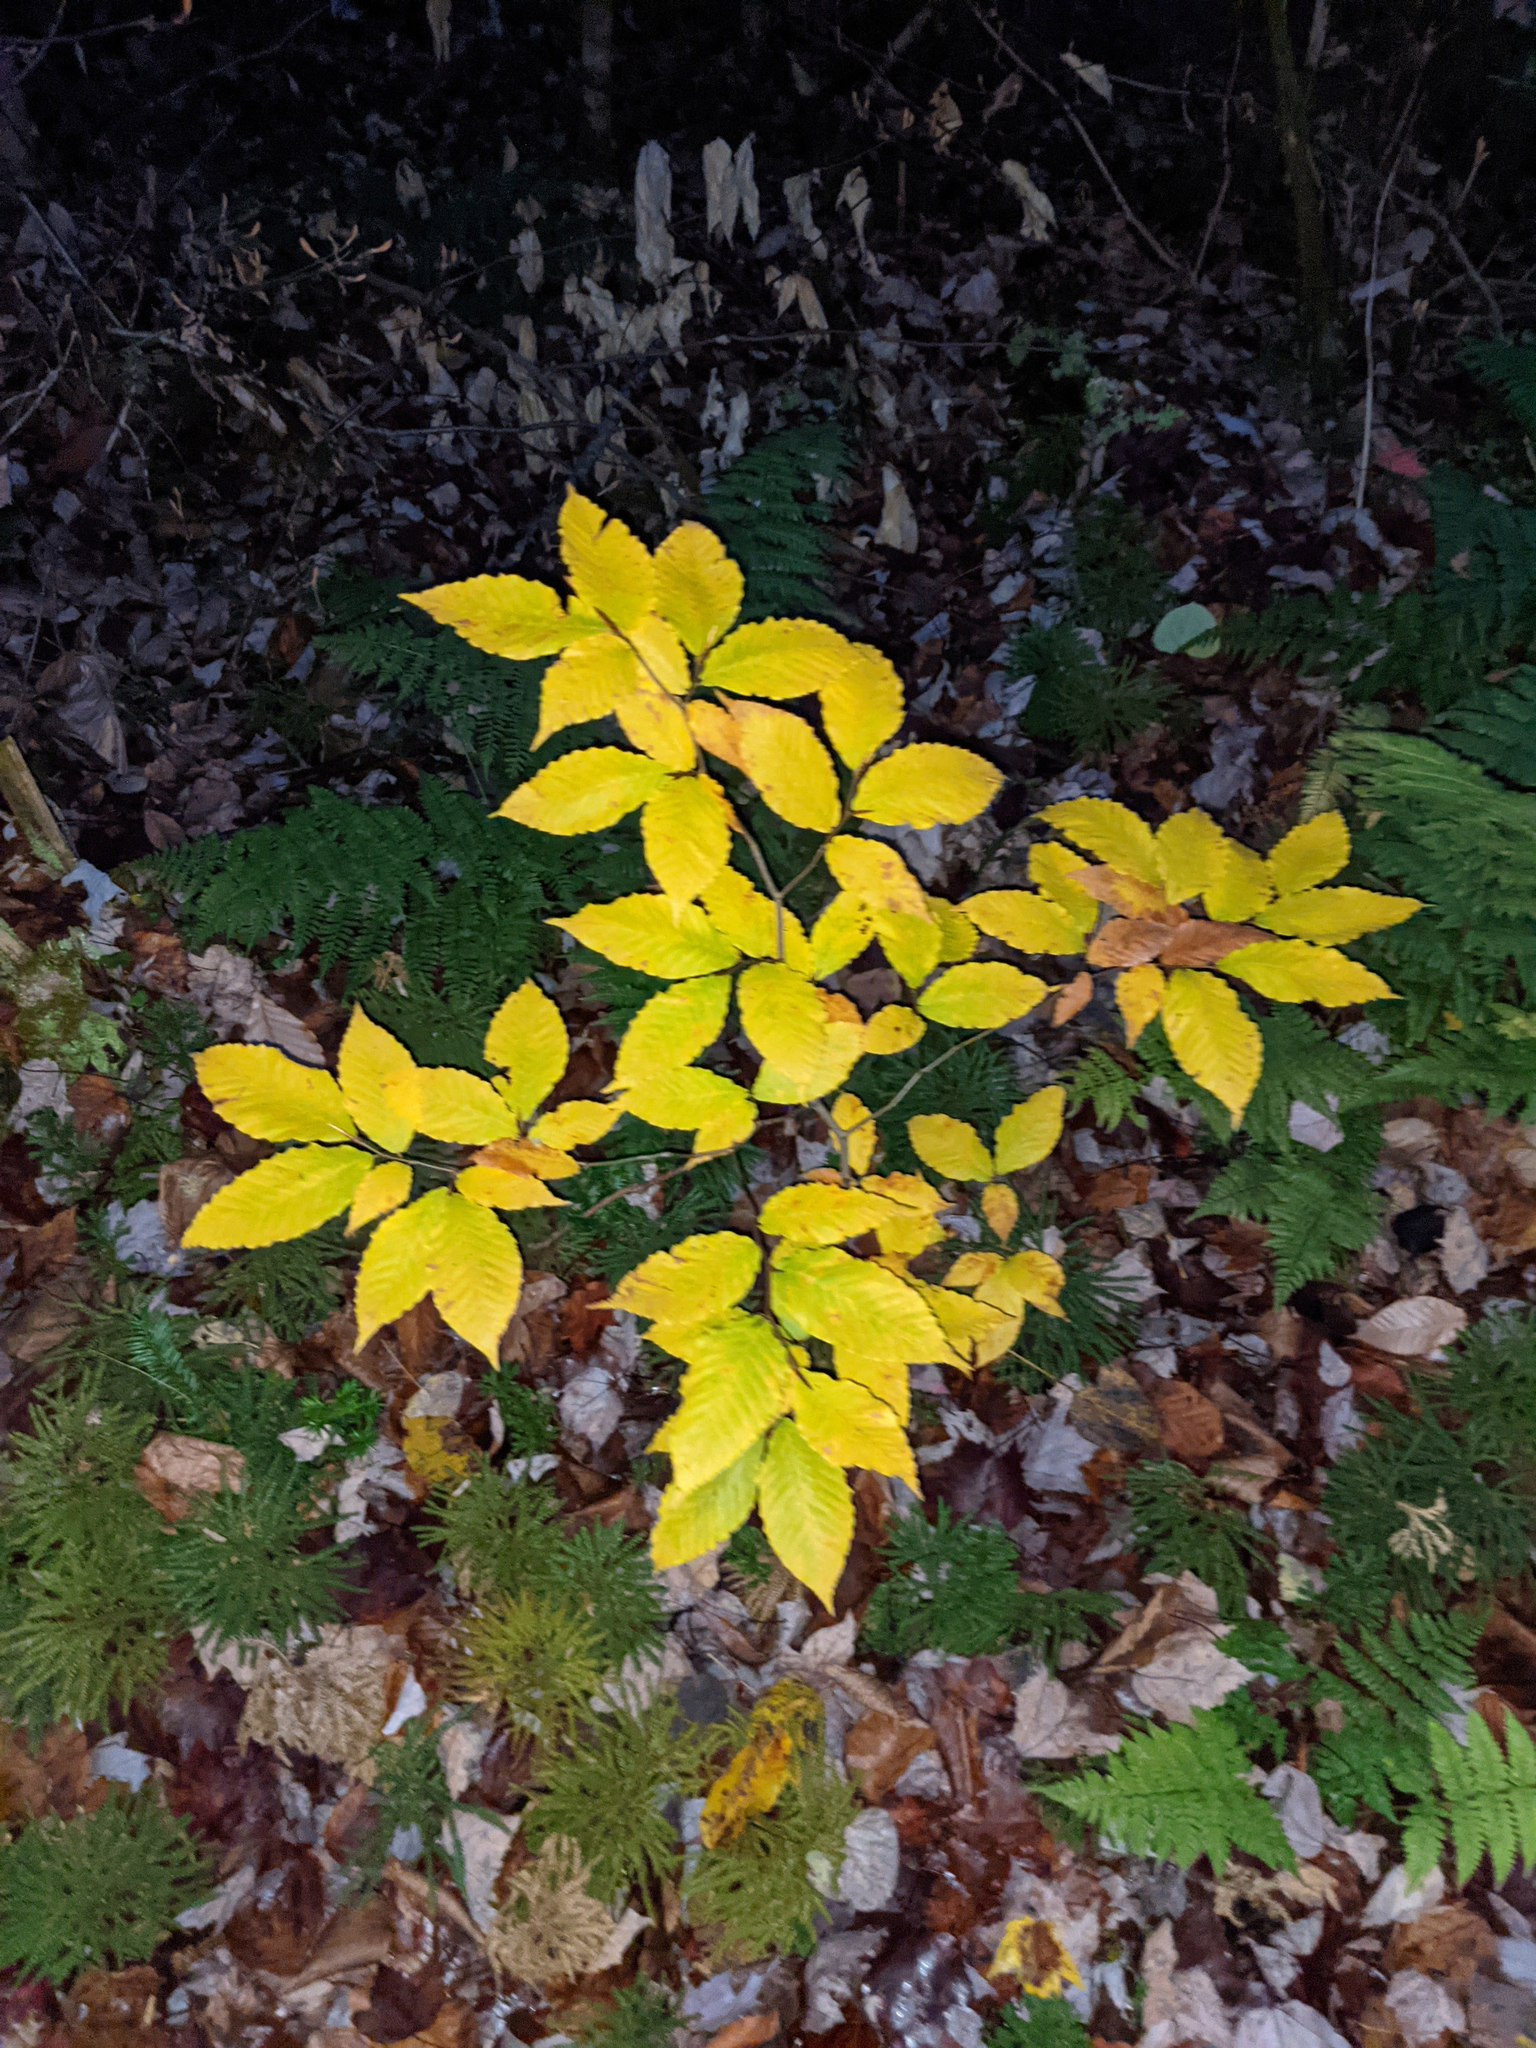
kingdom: Plantae
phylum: Tracheophyta
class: Magnoliopsida
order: Fagales
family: Fagaceae
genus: Fagus
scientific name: Fagus grandifolia
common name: American beech
